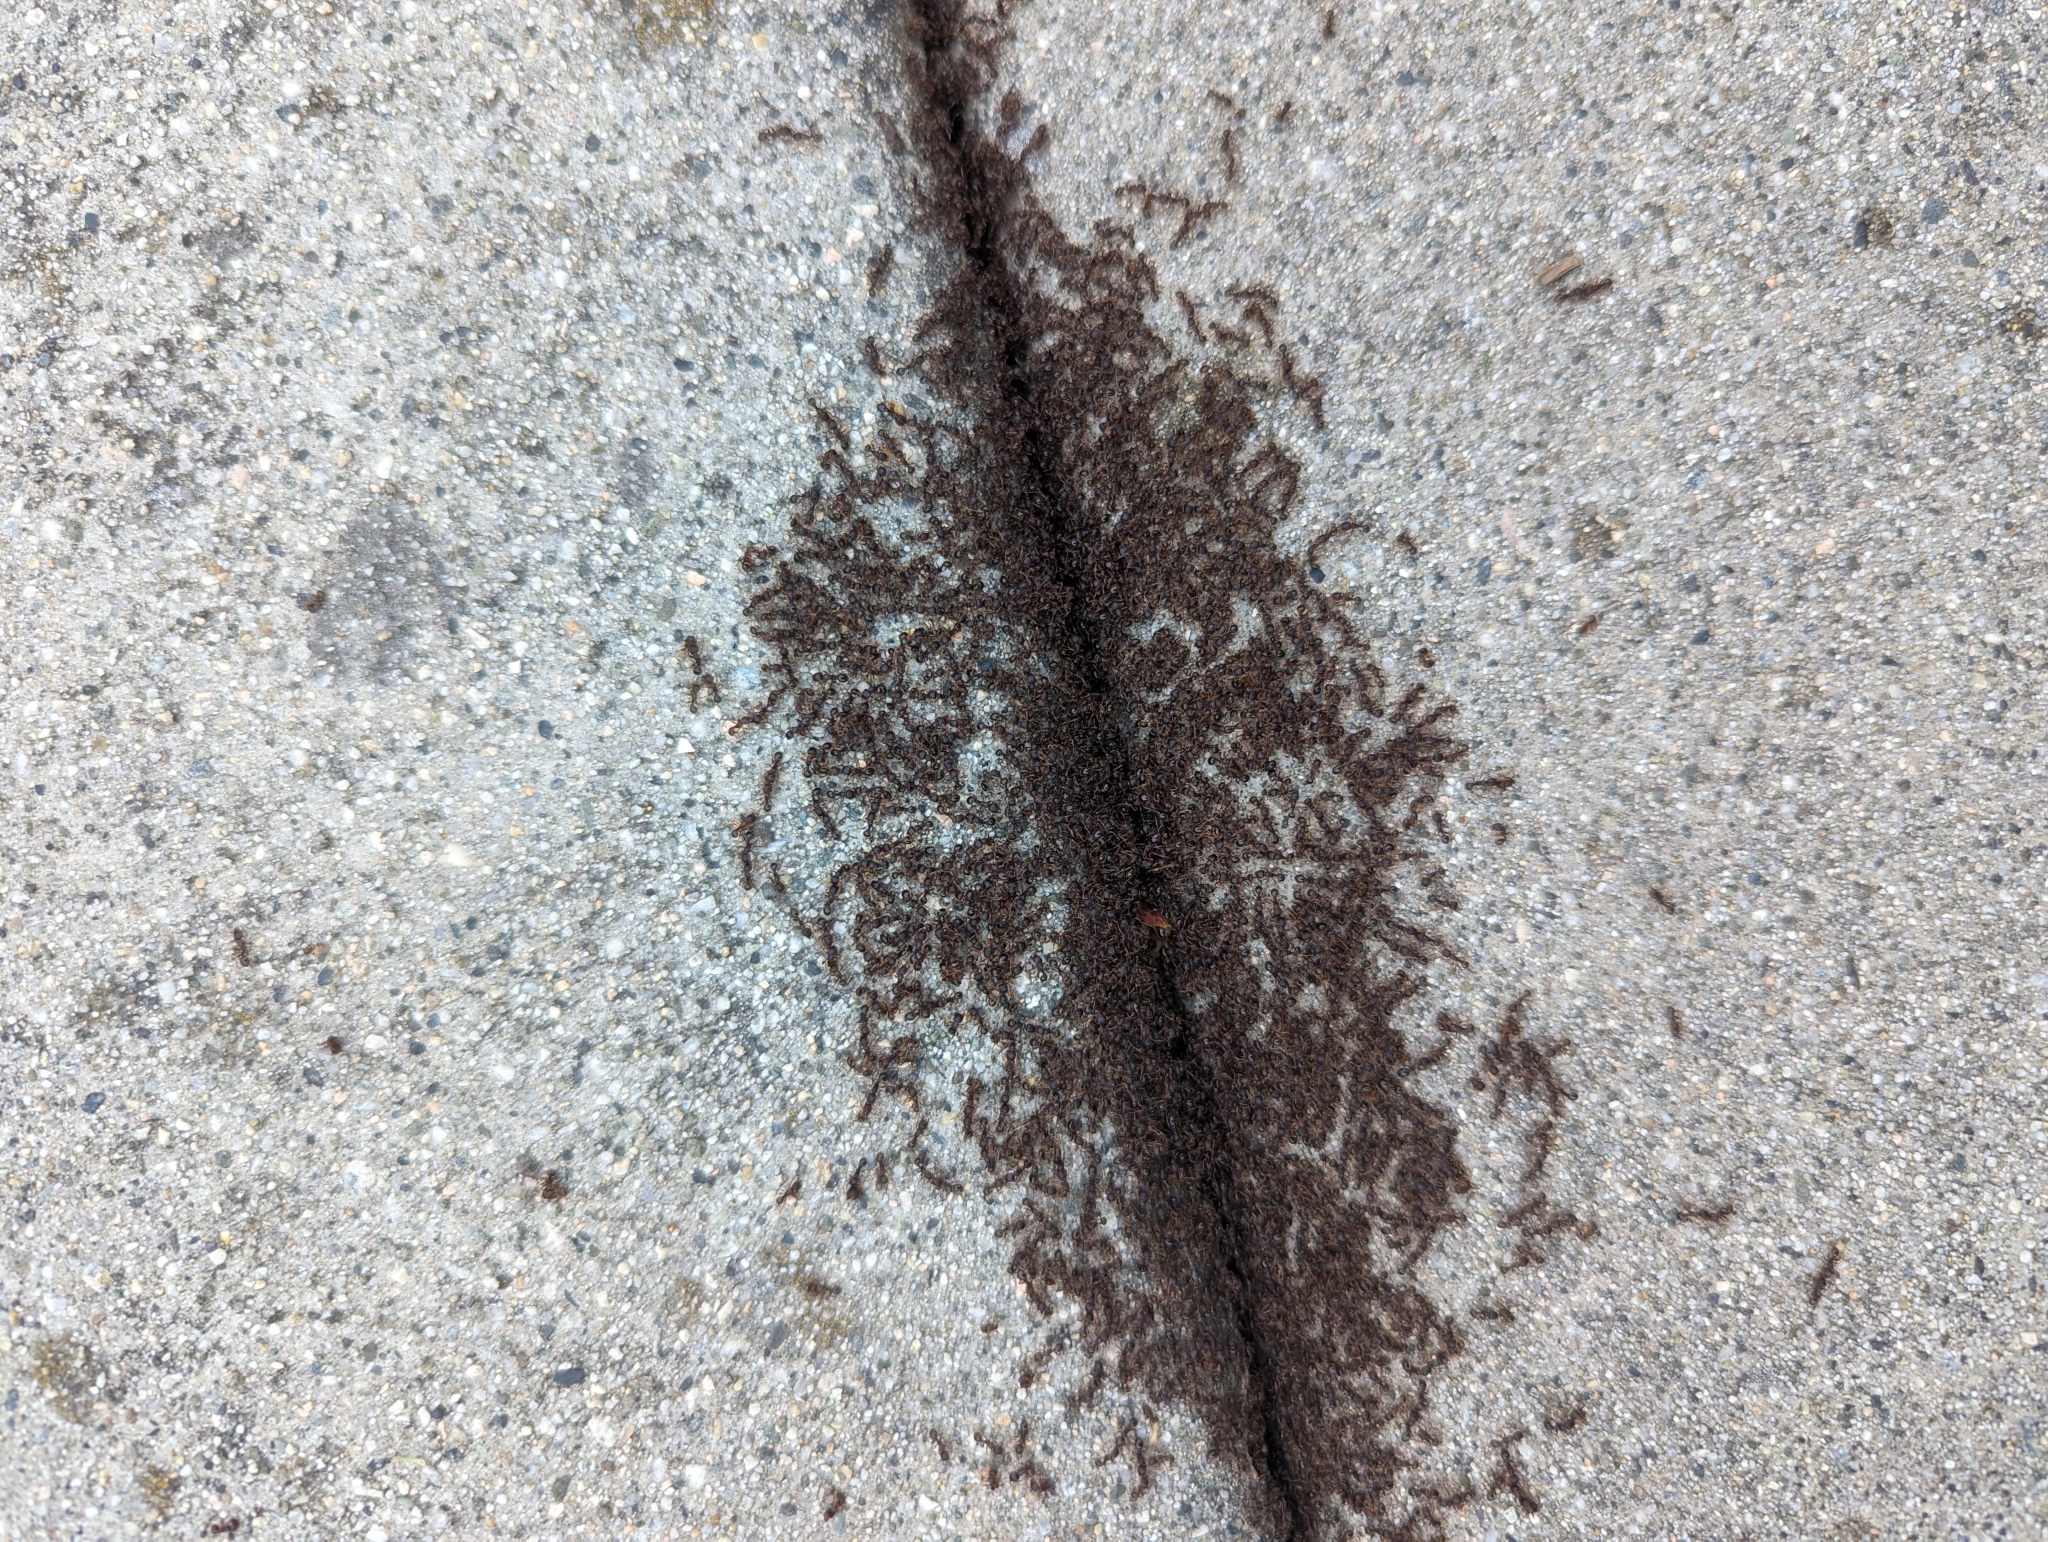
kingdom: Animalia
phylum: Arthropoda
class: Insecta
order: Hymenoptera
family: Formicidae
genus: Tetramorium
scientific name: Tetramorium immigrans
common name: Pavement ant
